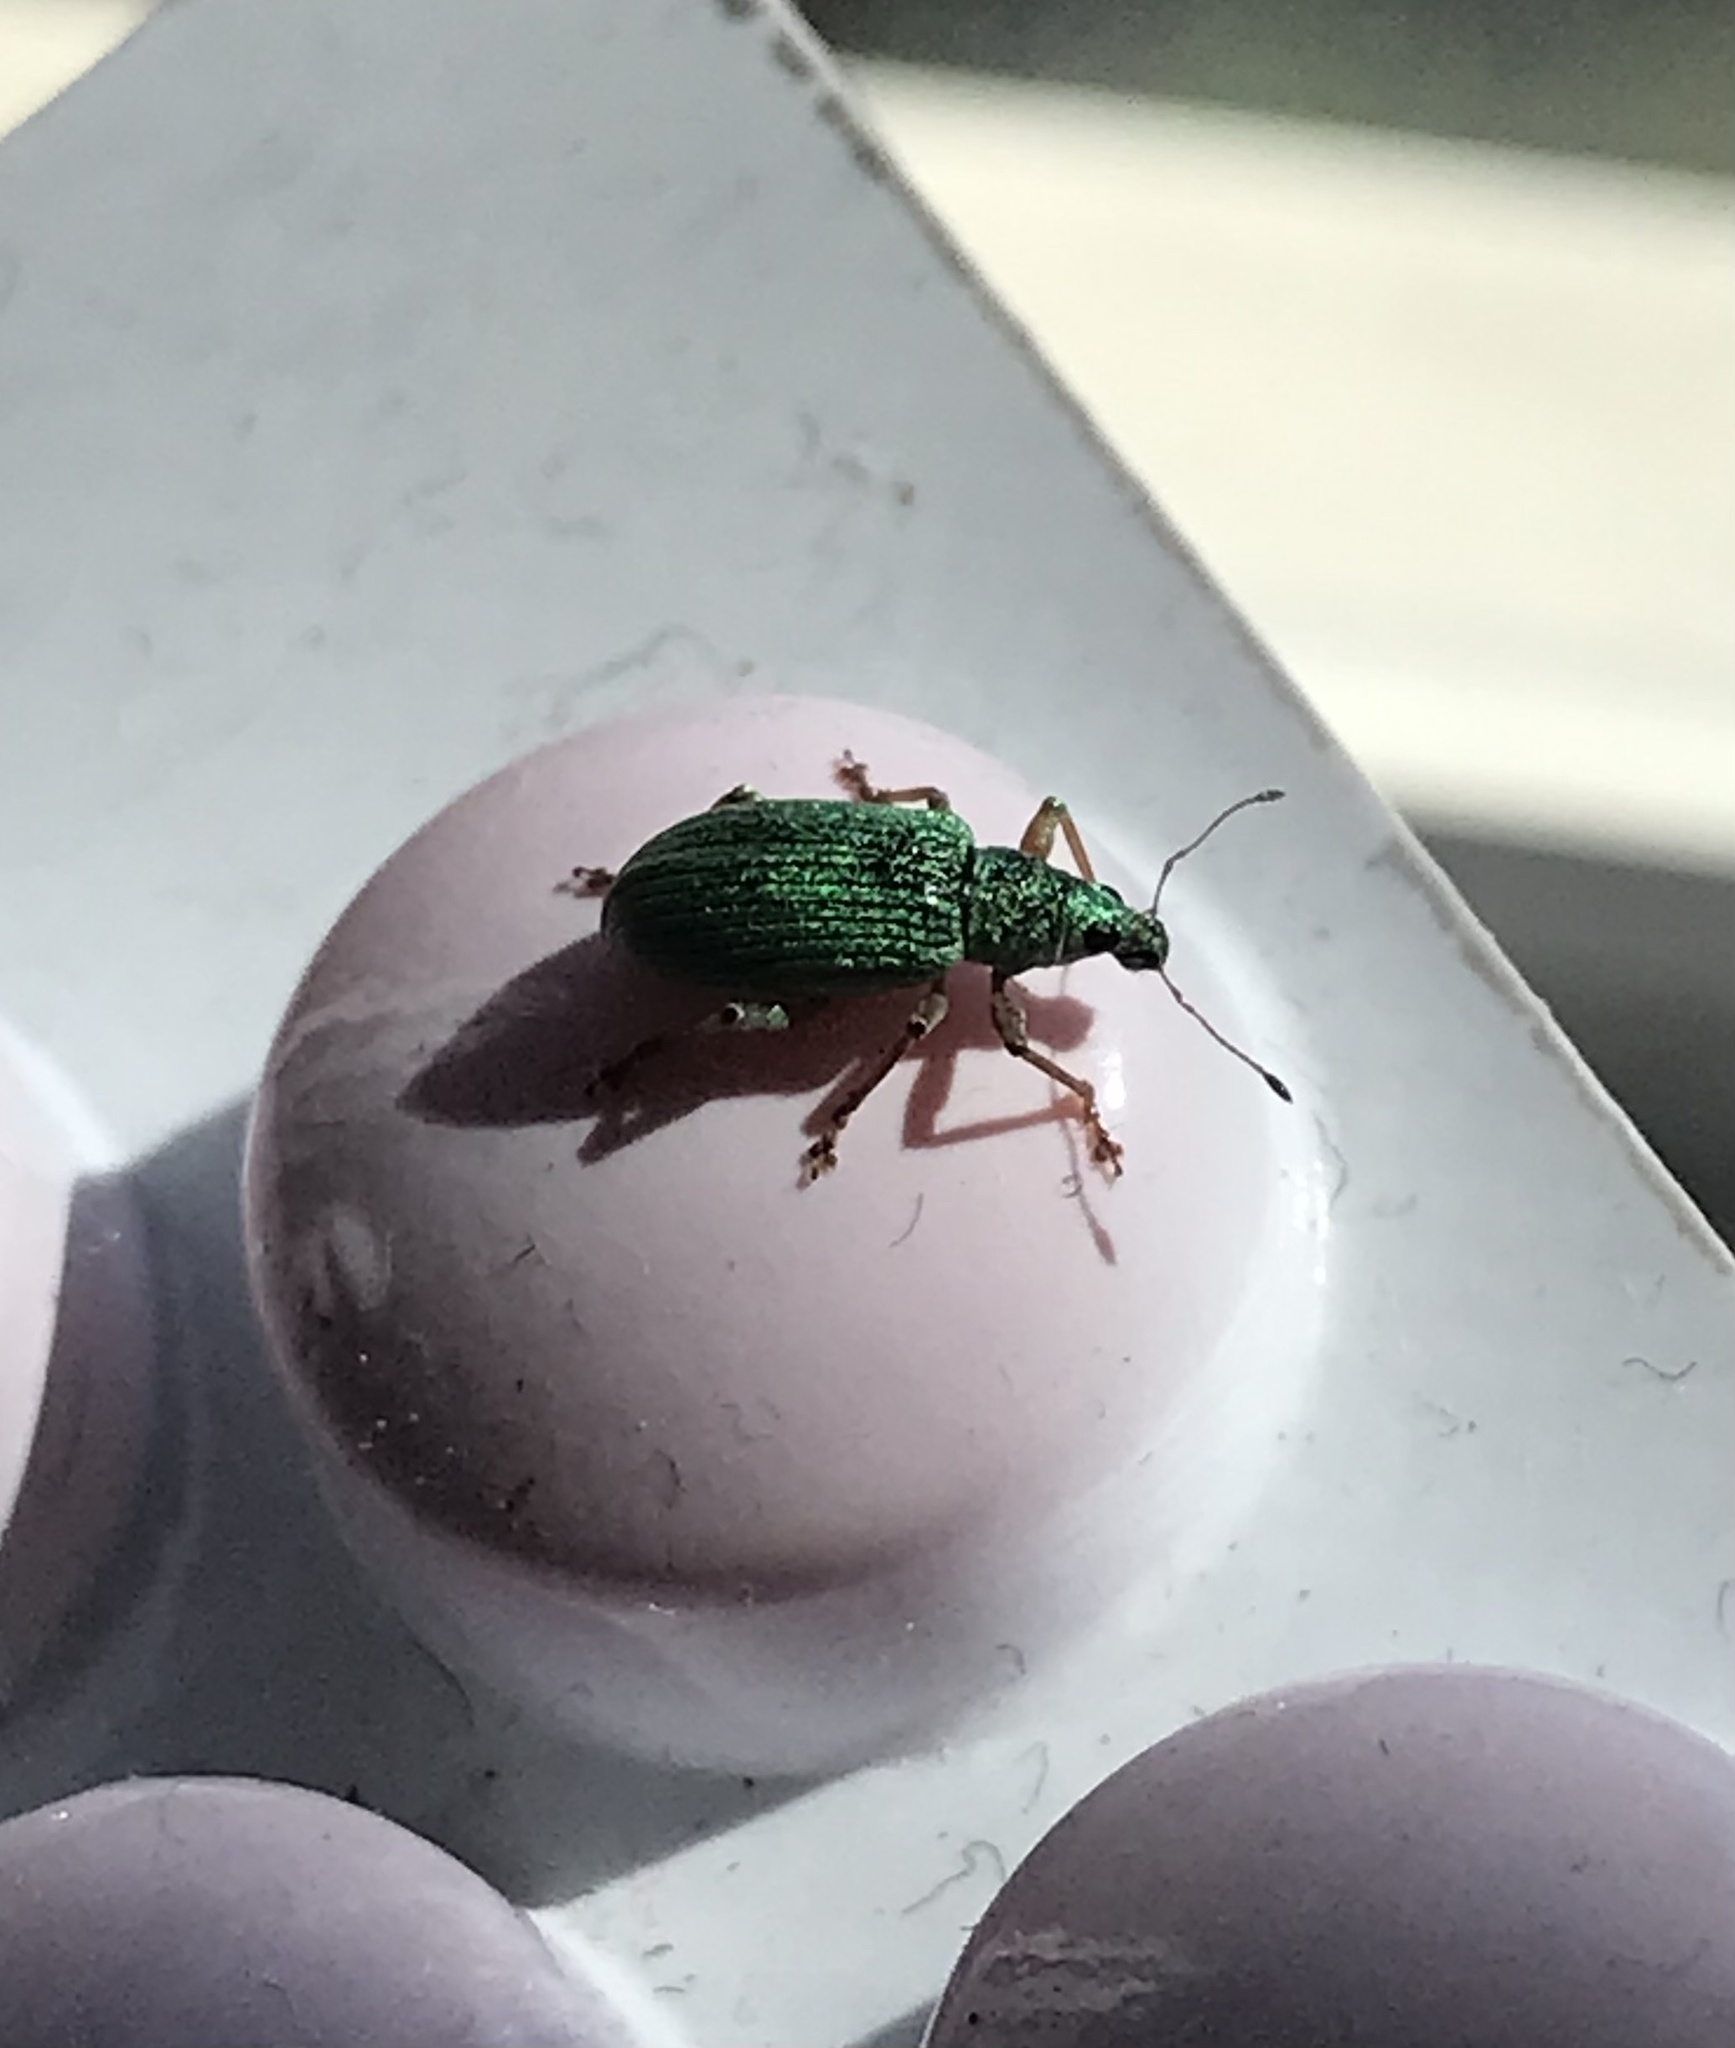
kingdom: Animalia
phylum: Arthropoda
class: Insecta
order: Coleoptera
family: Curculionidae
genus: Polydrusus
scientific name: Polydrusus formosus
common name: Weevil
